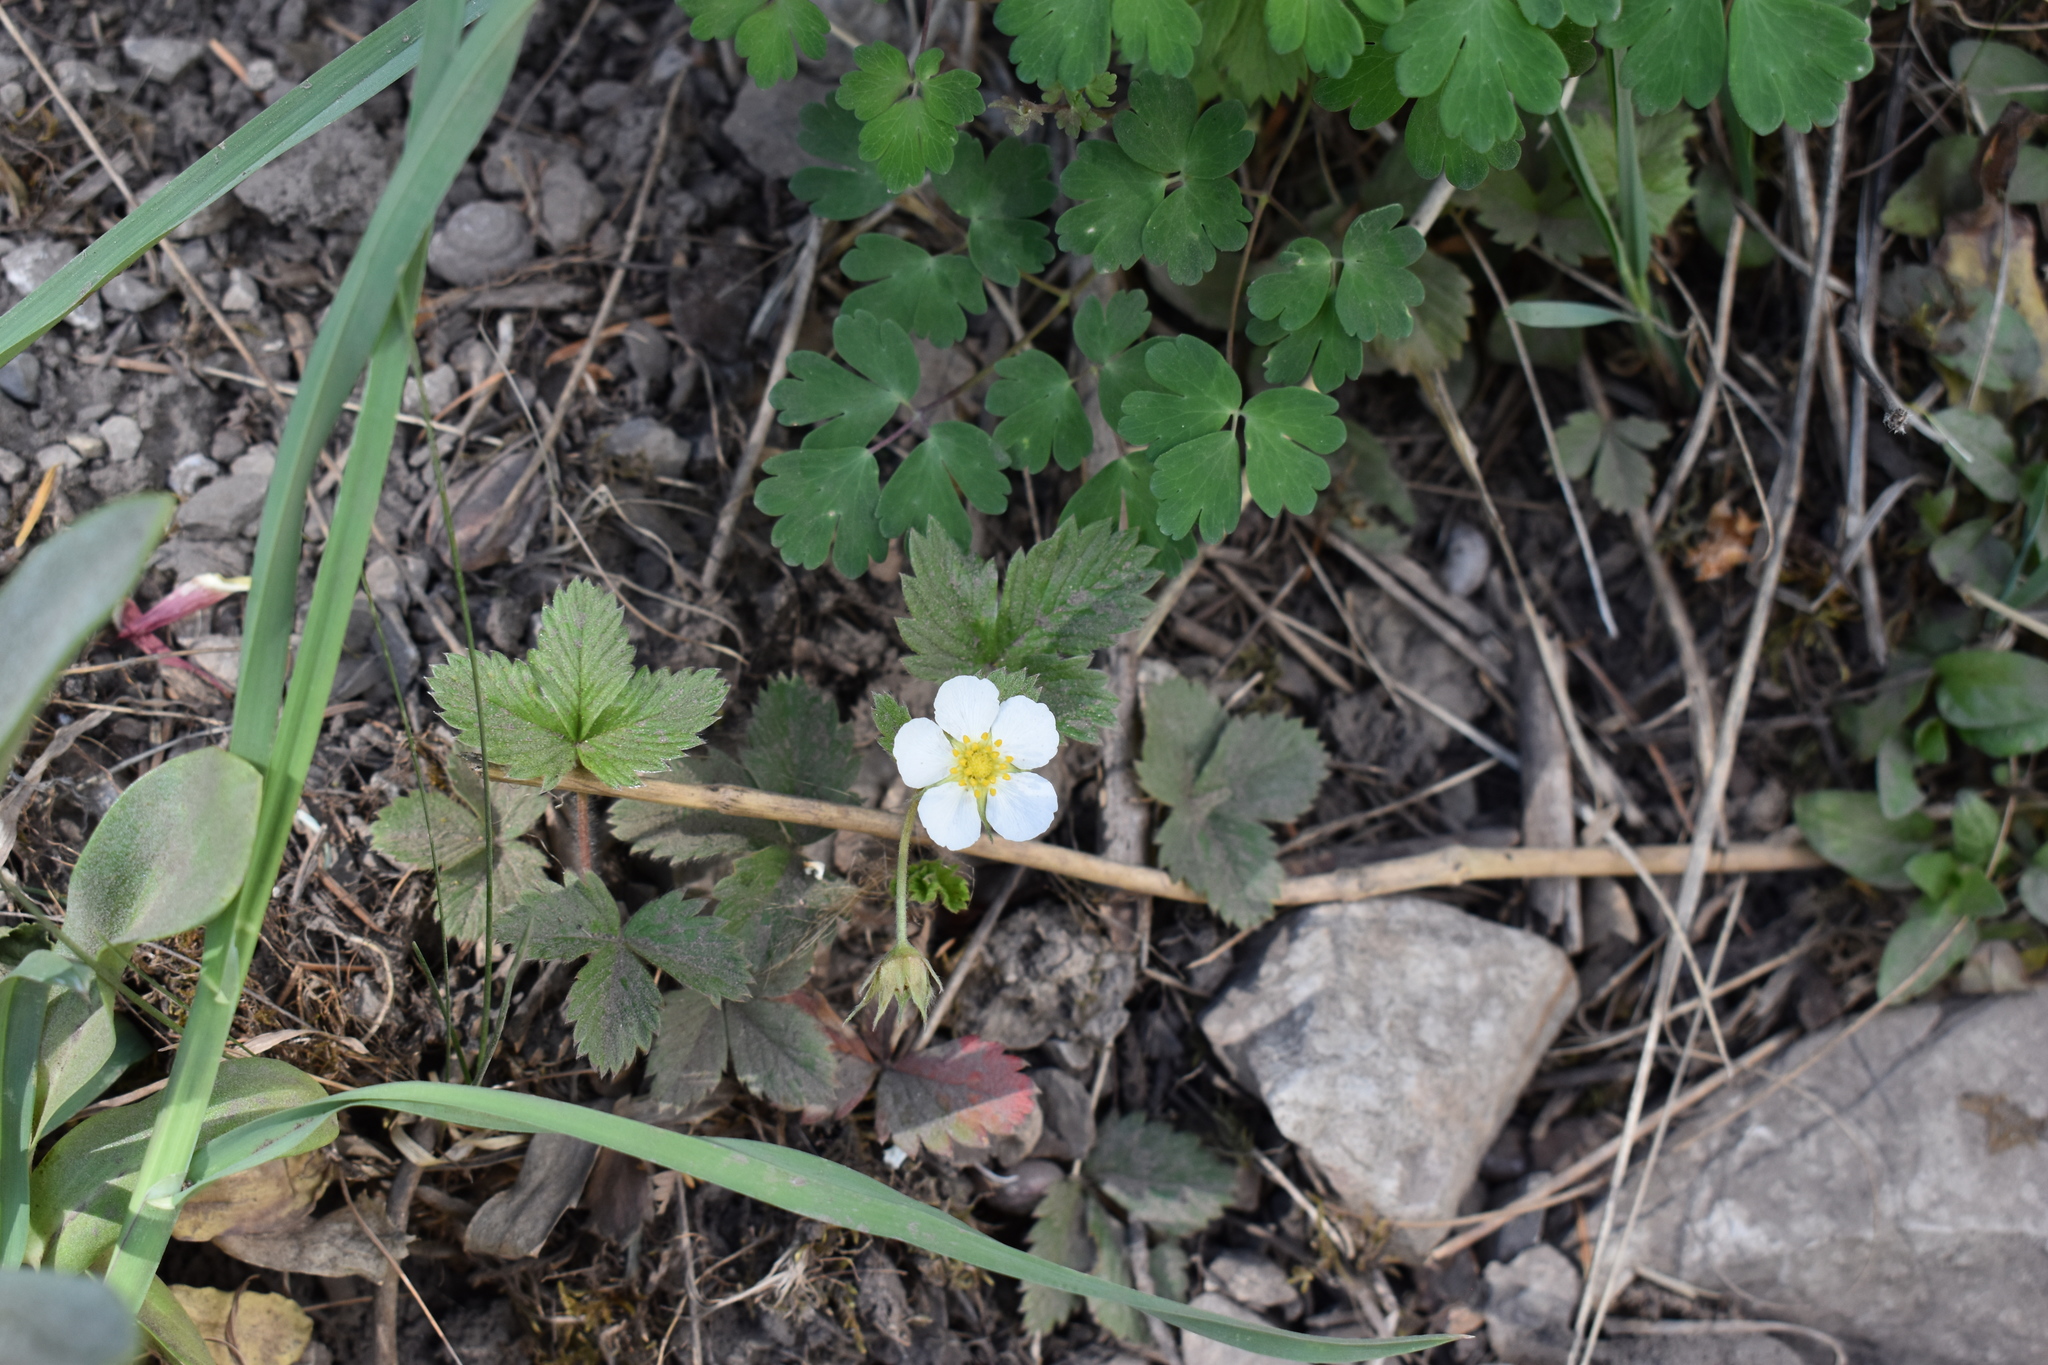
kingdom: Plantae
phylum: Tracheophyta
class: Magnoliopsida
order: Rosales
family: Rosaceae
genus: Fragaria
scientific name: Fragaria vesca
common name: Wild strawberry
